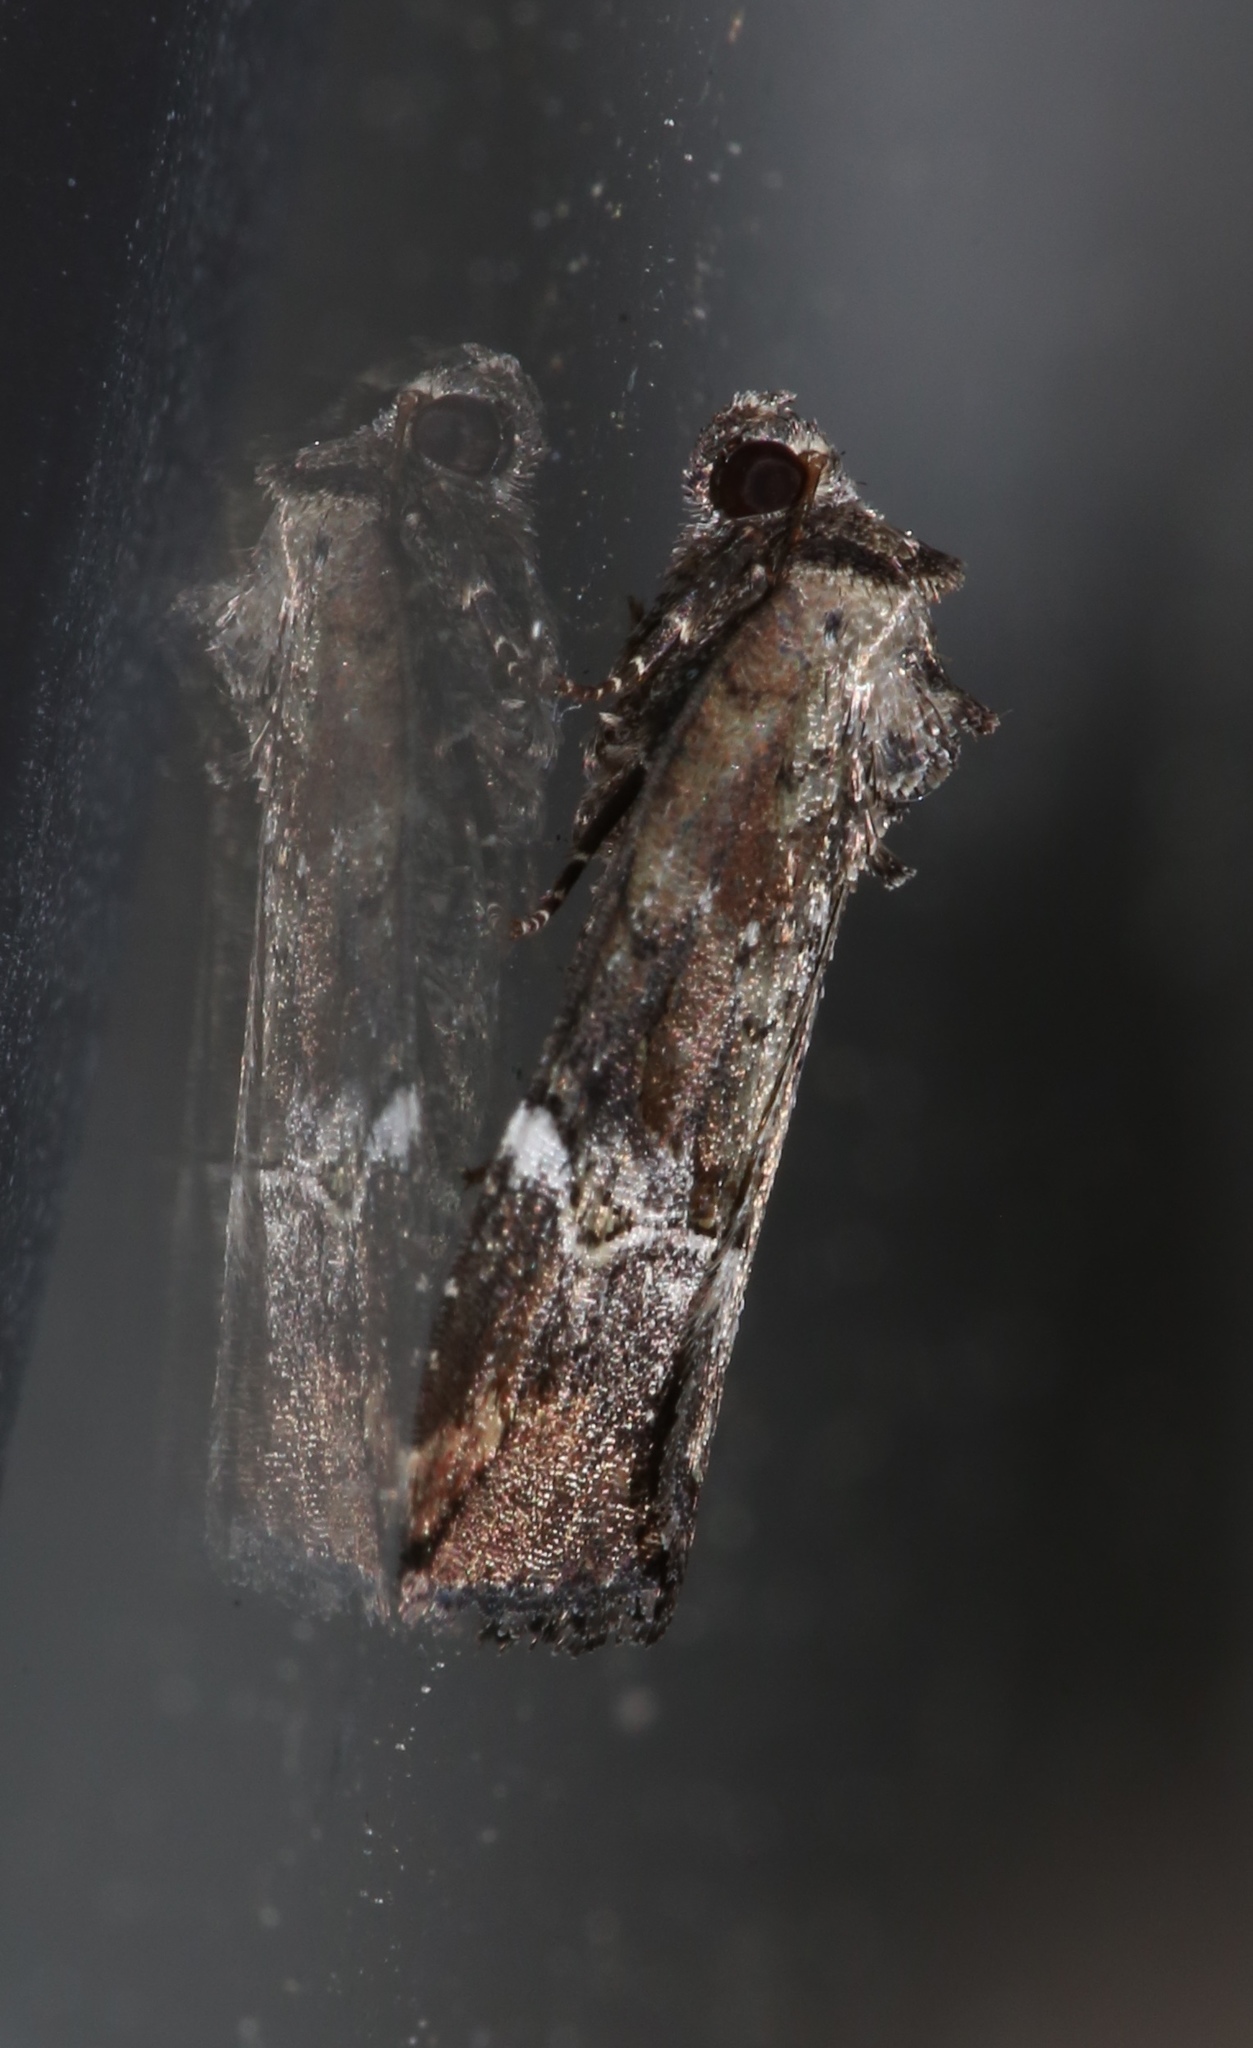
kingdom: Animalia
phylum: Arthropoda
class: Insecta
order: Lepidoptera
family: Noctuidae
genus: Elaphria
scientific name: Elaphria versicolor
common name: Fir harlequin
